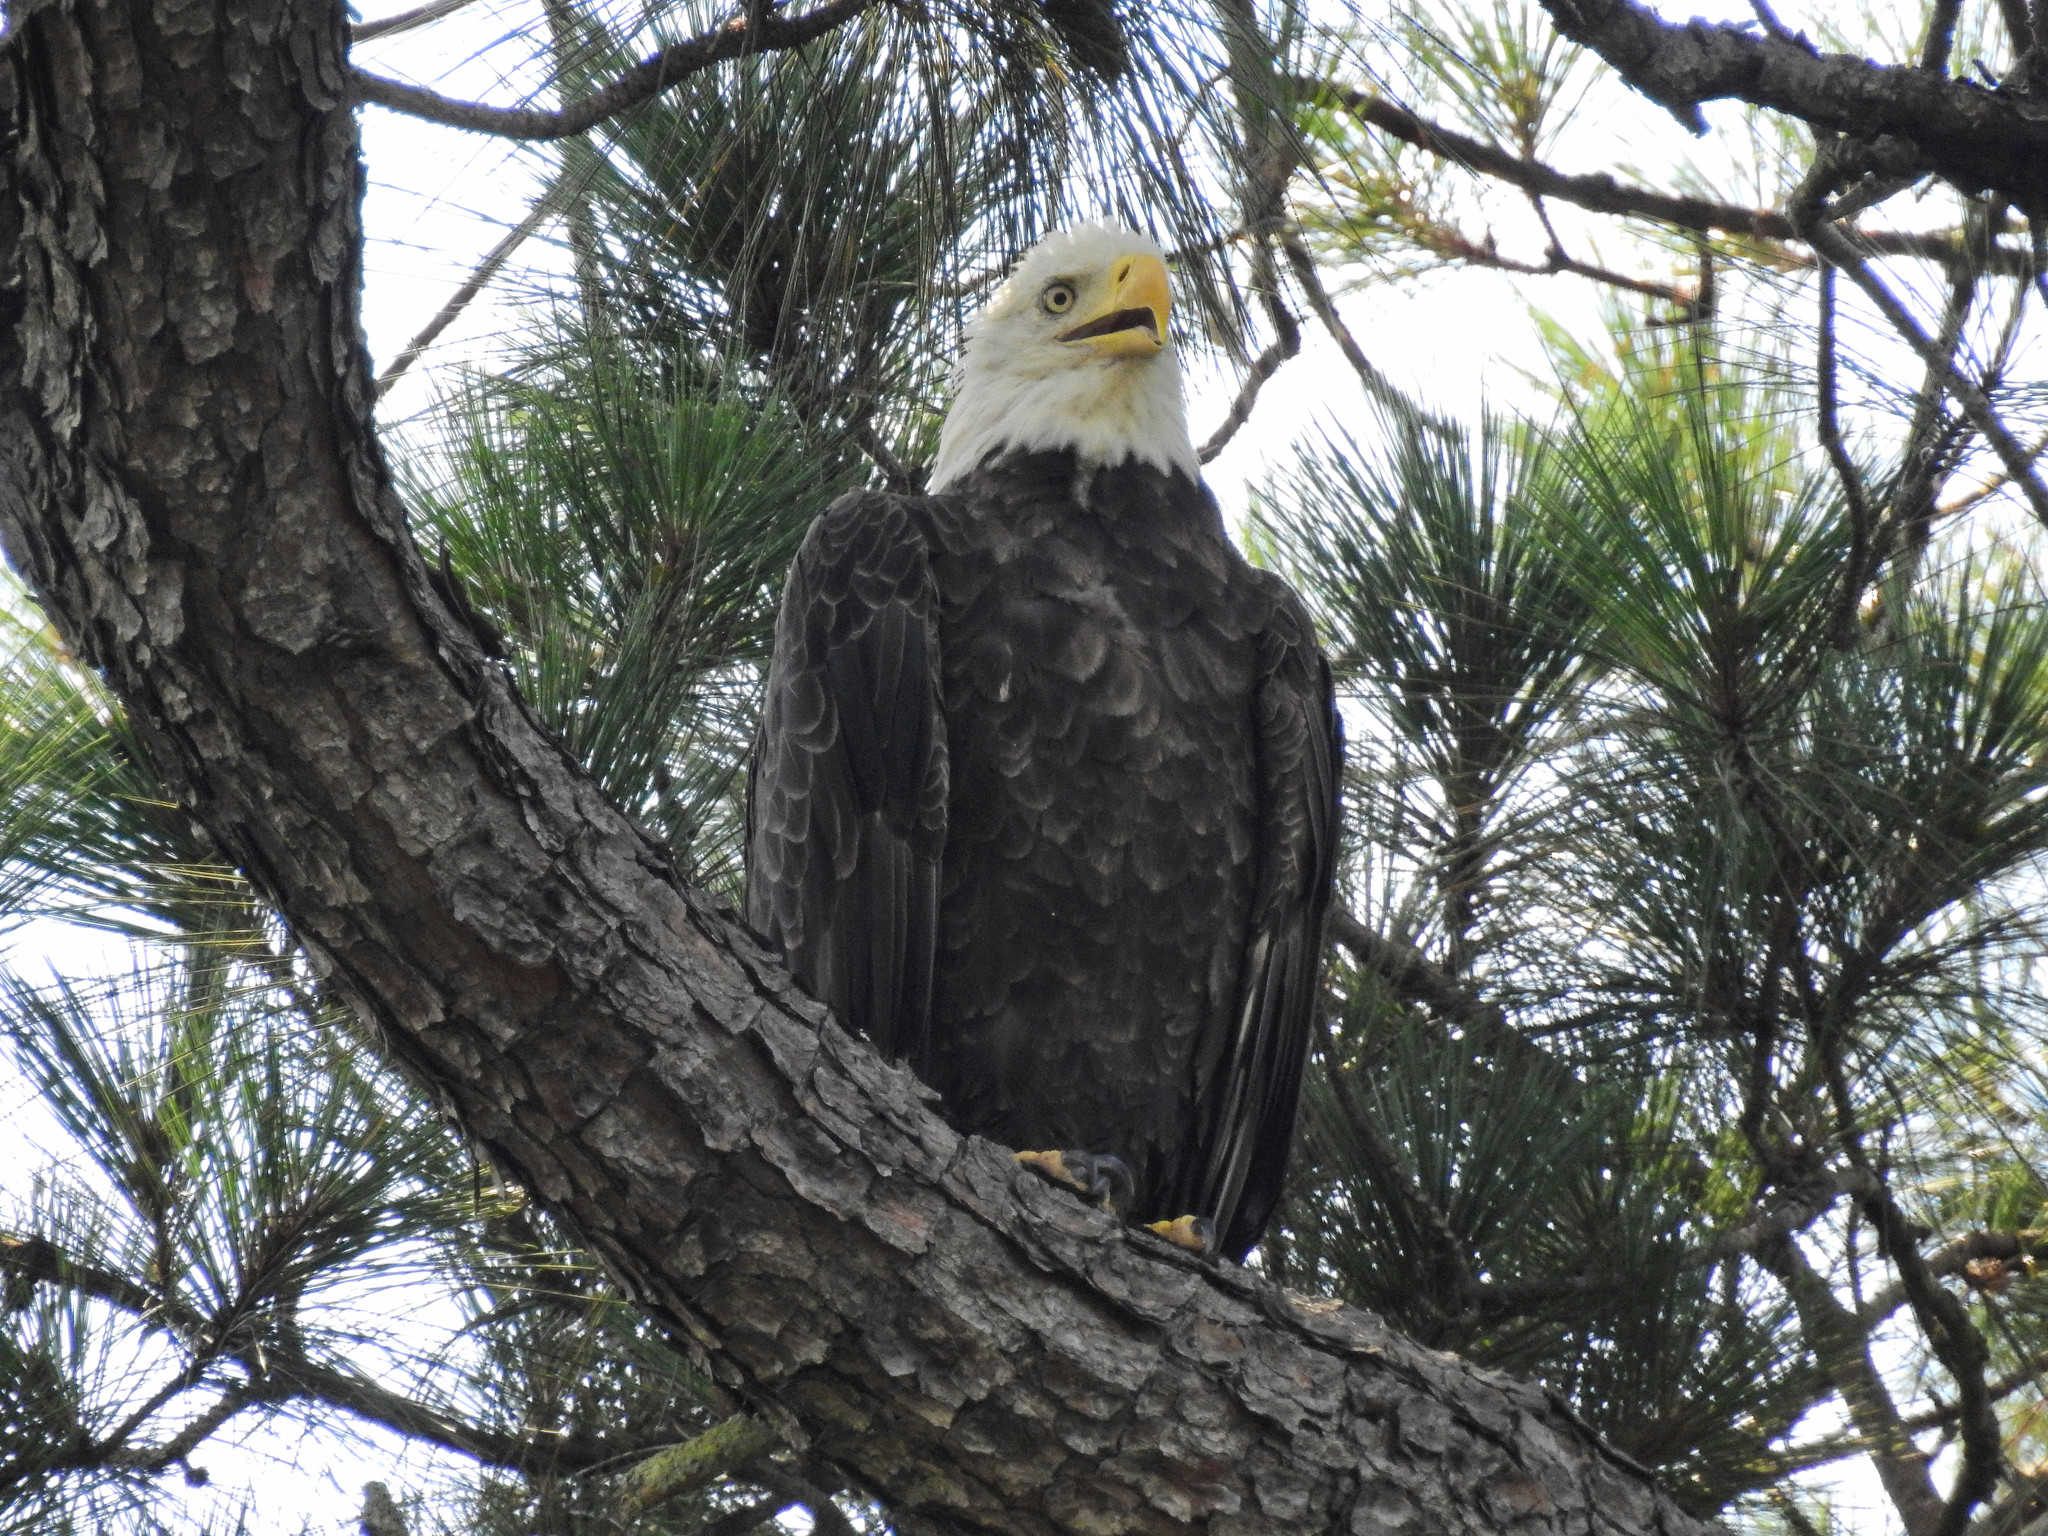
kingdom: Animalia
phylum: Chordata
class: Aves
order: Accipitriformes
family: Accipitridae
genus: Haliaeetus
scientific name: Haliaeetus leucocephalus
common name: Bald eagle
